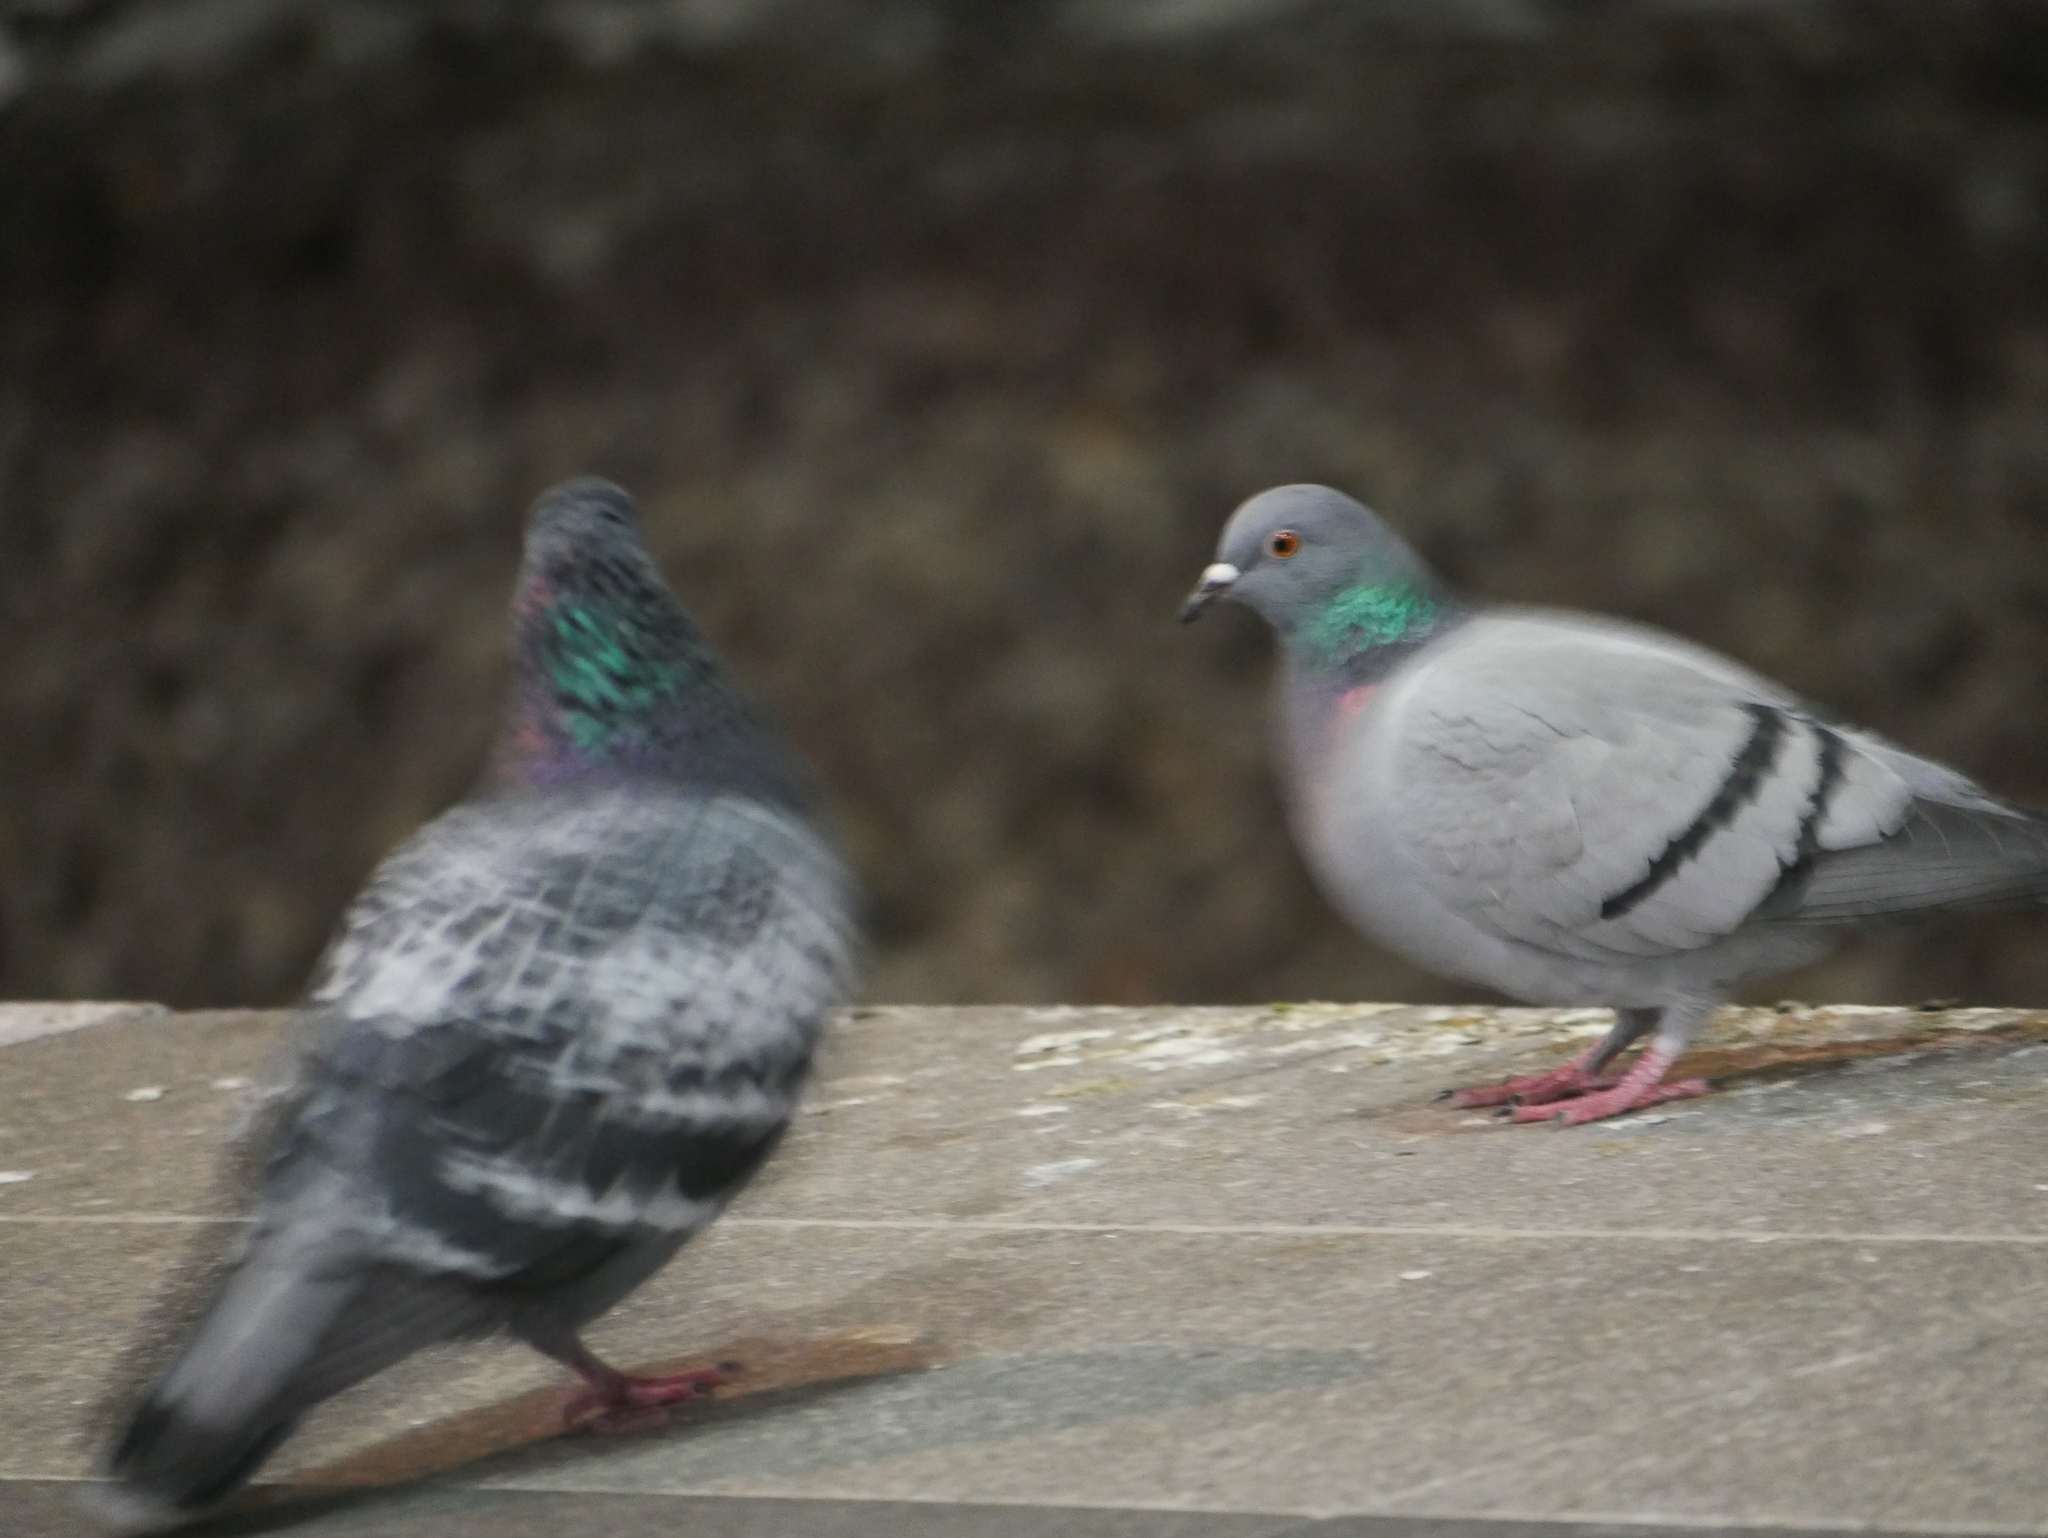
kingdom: Animalia
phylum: Chordata
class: Aves
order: Columbiformes
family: Columbidae
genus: Columba
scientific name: Columba livia
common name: Rock pigeon
